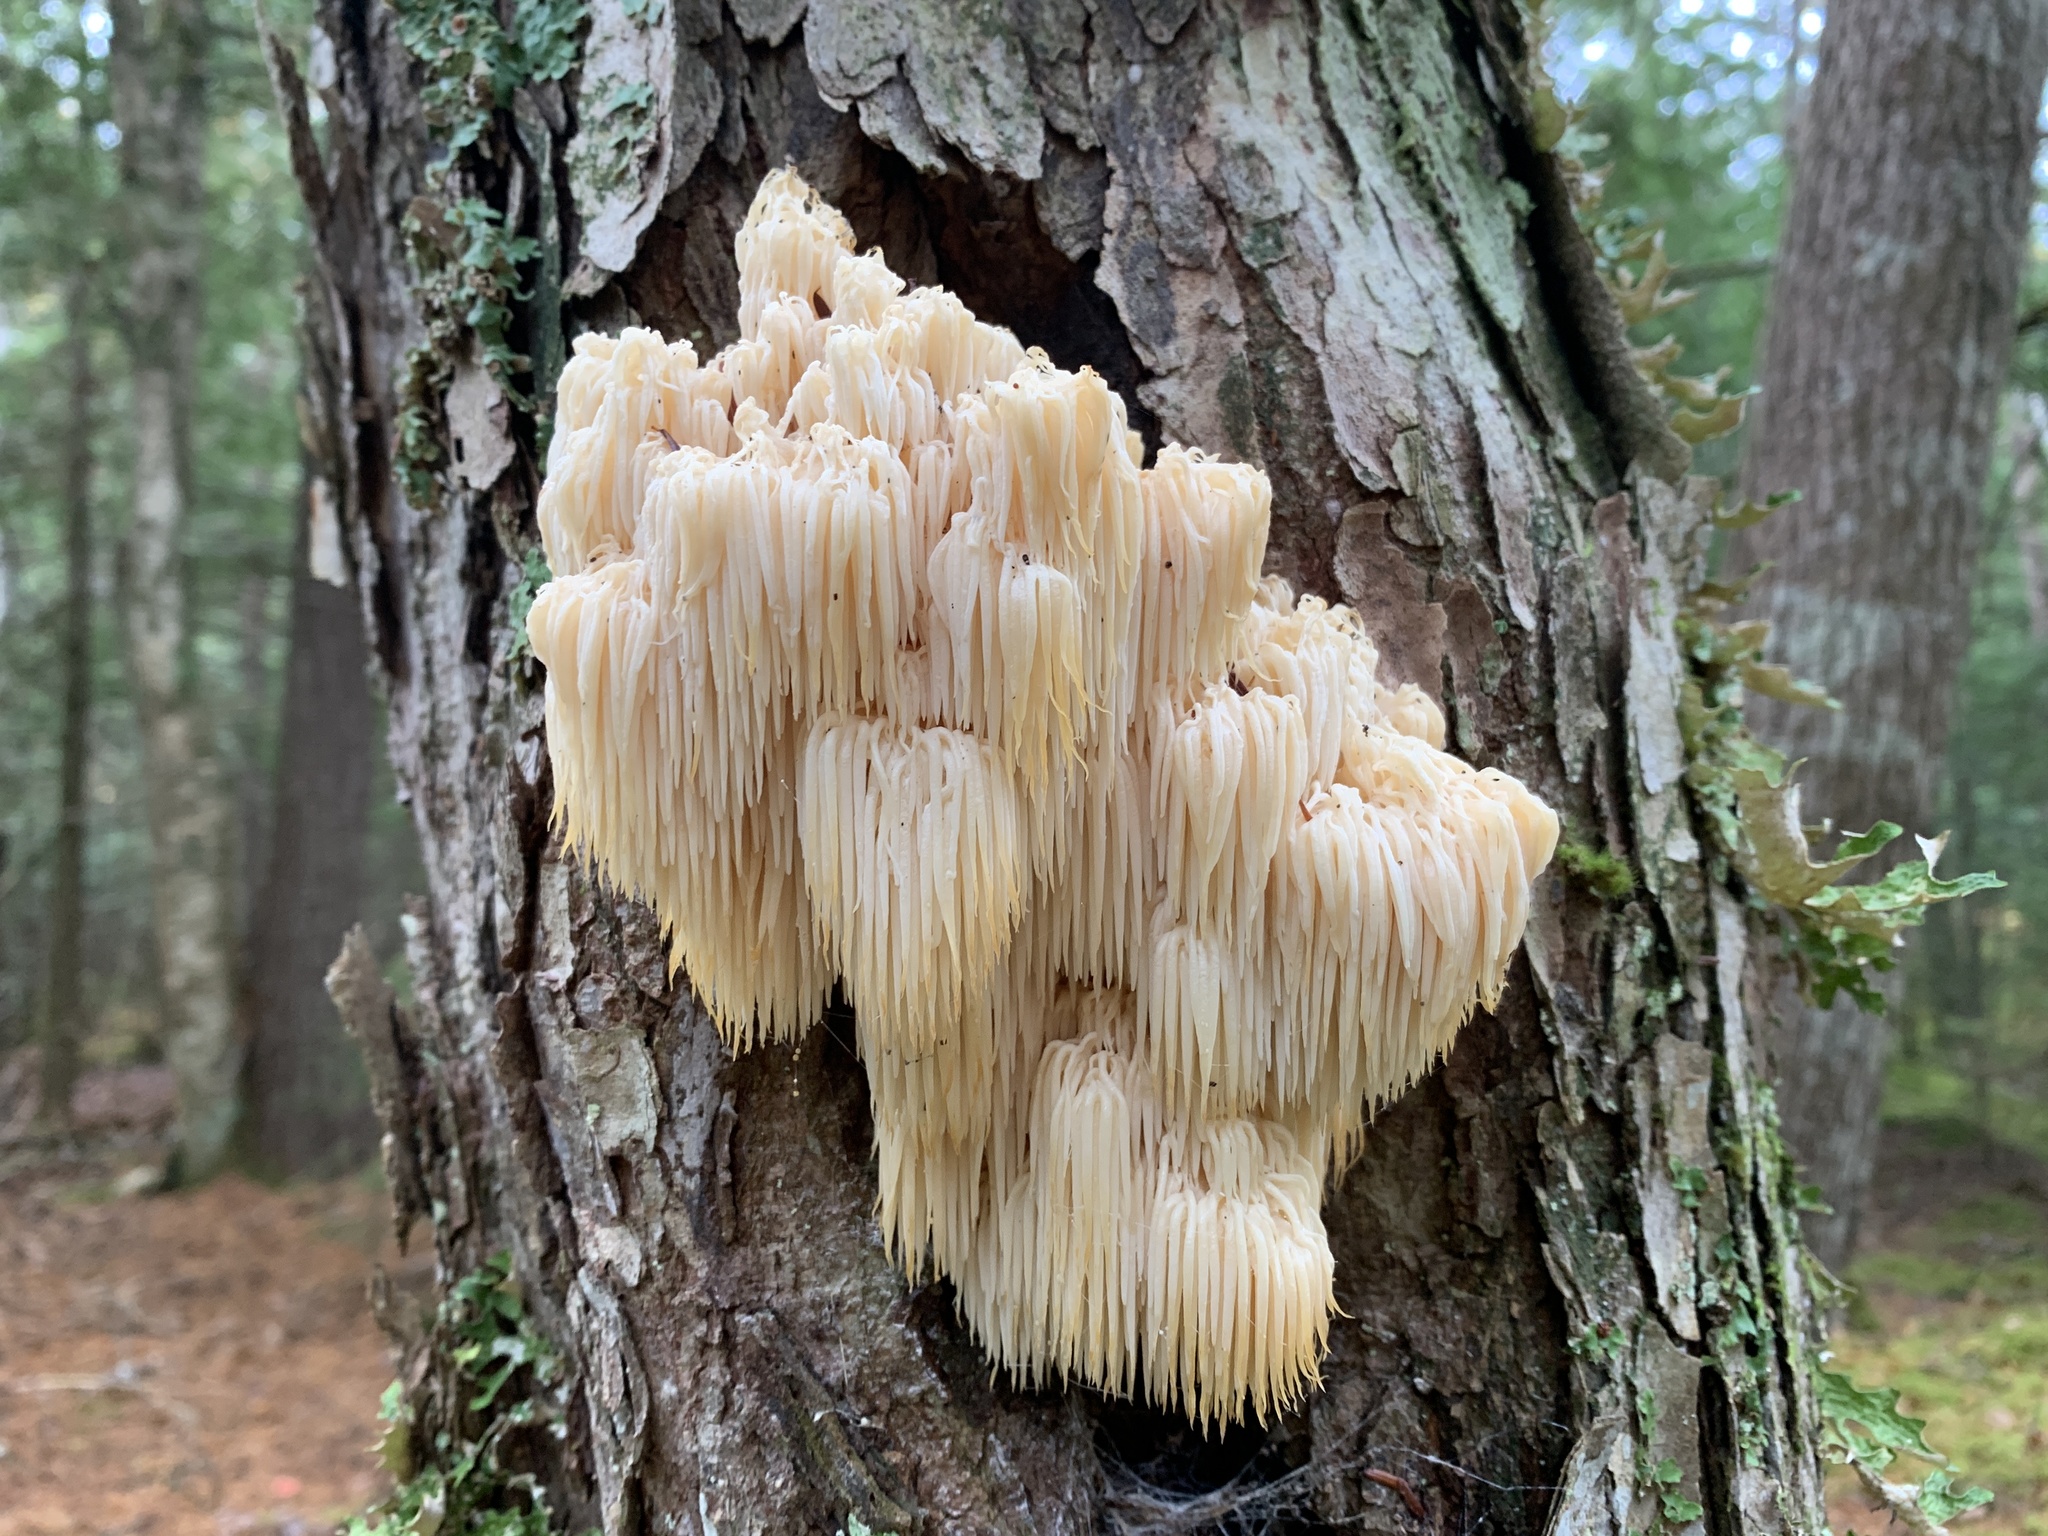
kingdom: Fungi
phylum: Basidiomycota
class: Agaricomycetes
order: Russulales
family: Hericiaceae
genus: Hericium
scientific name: Hericium americanum
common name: Bear's head tooth
